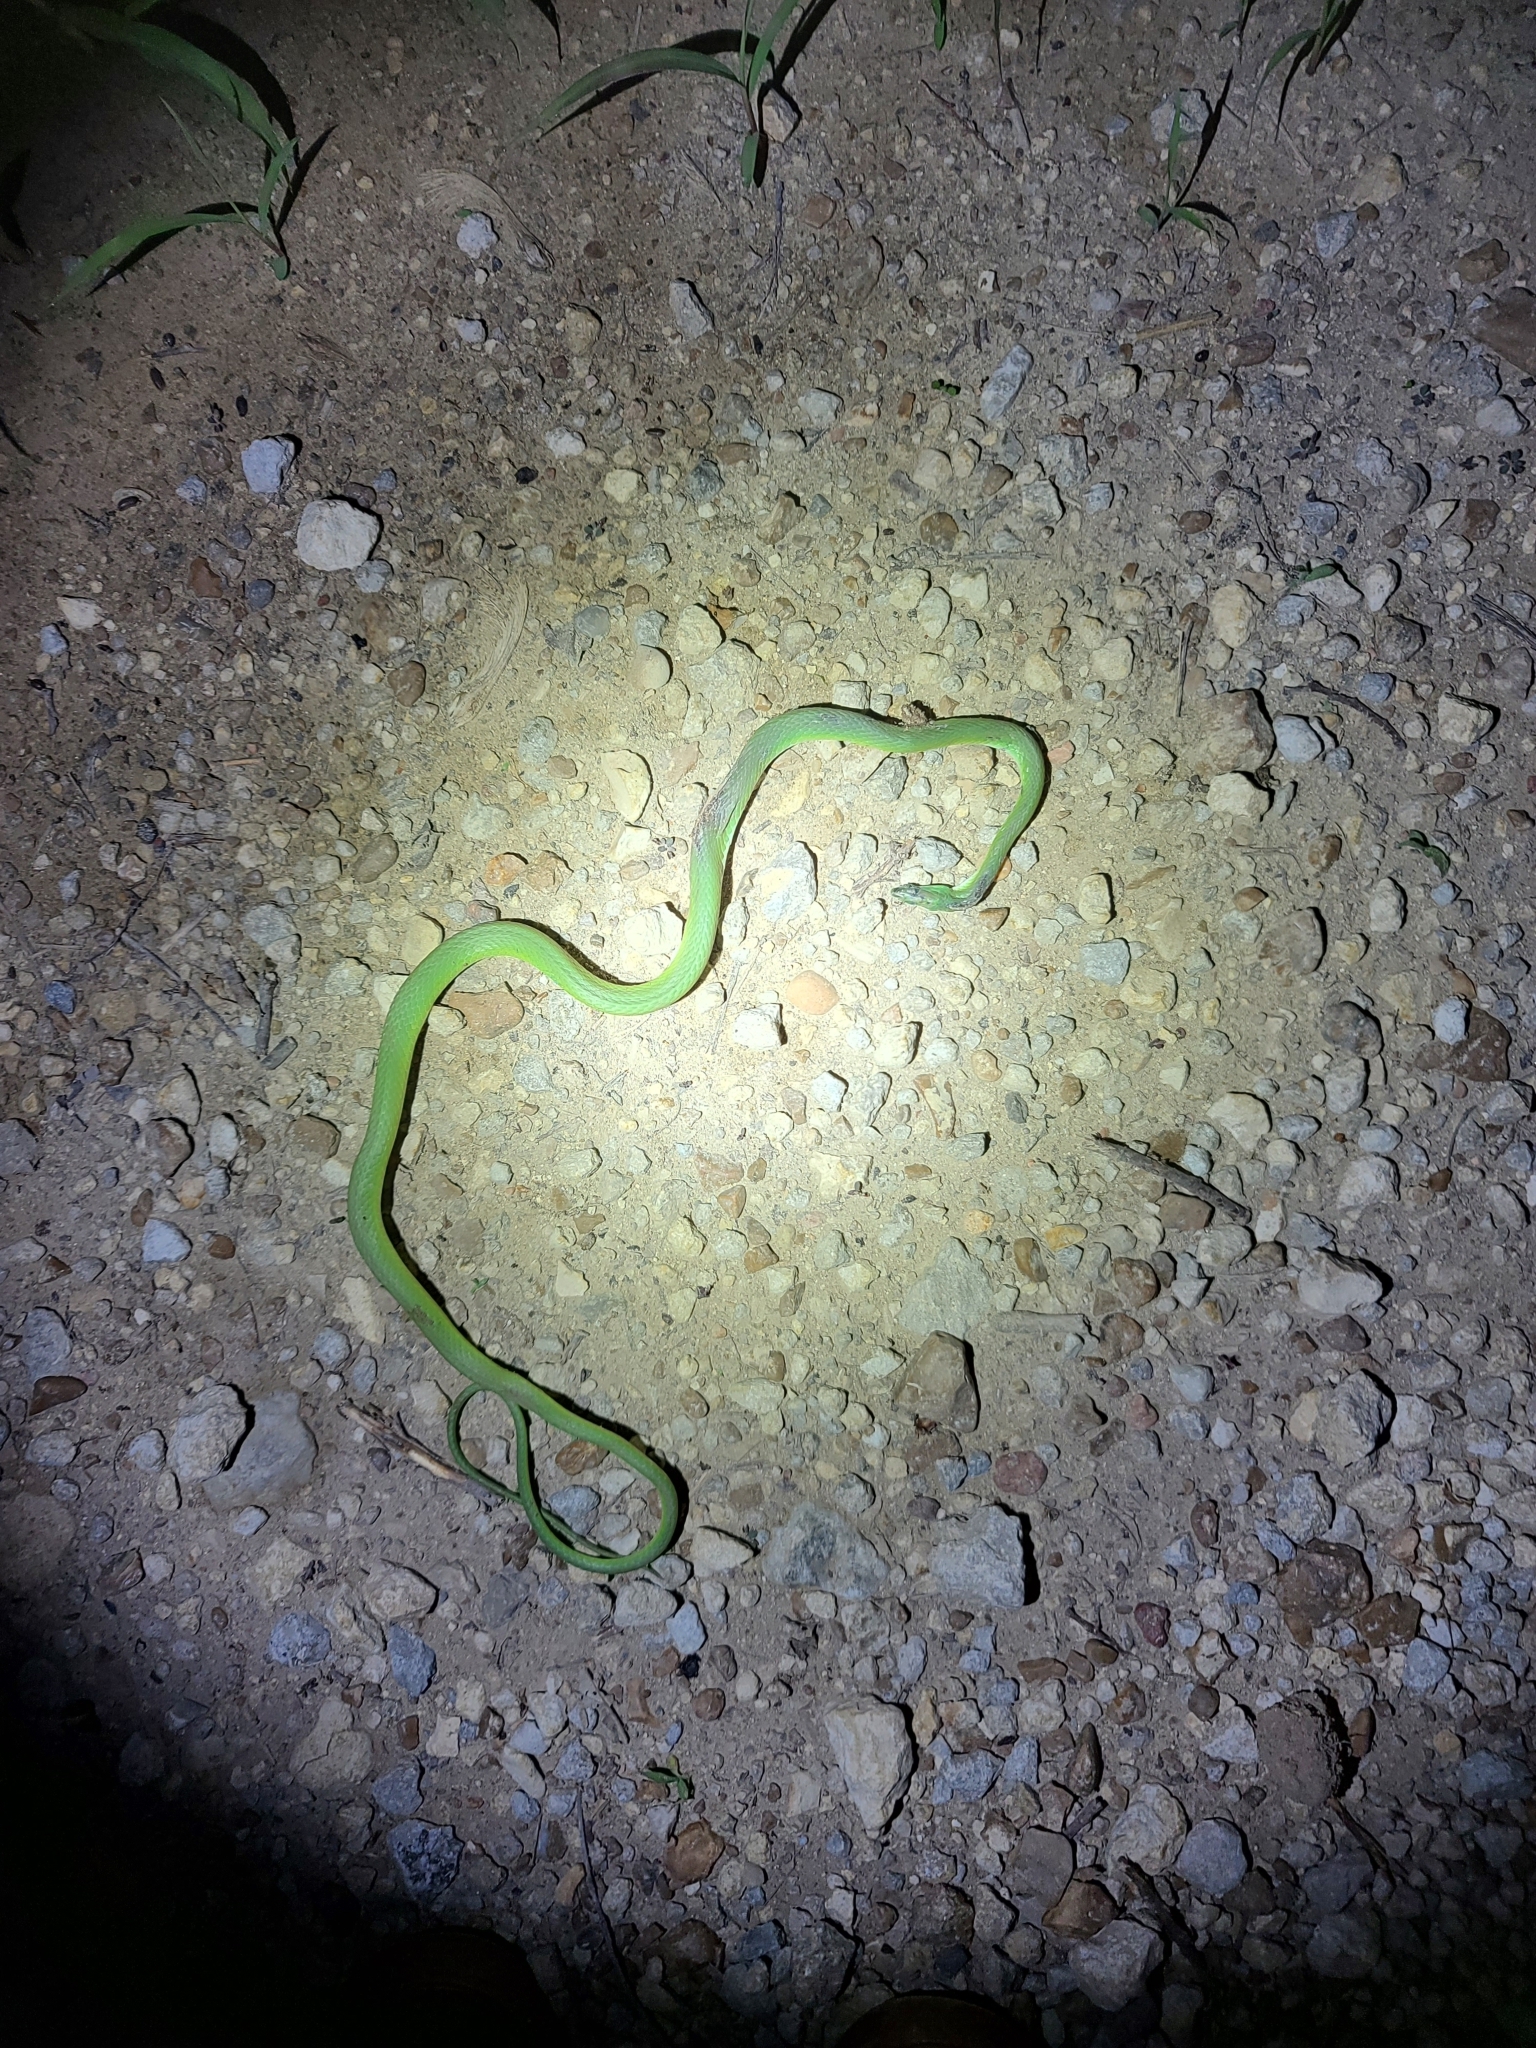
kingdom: Animalia
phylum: Chordata
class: Squamata
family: Colubridae
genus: Opheodrys
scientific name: Opheodrys aestivus
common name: Rough greensnake
